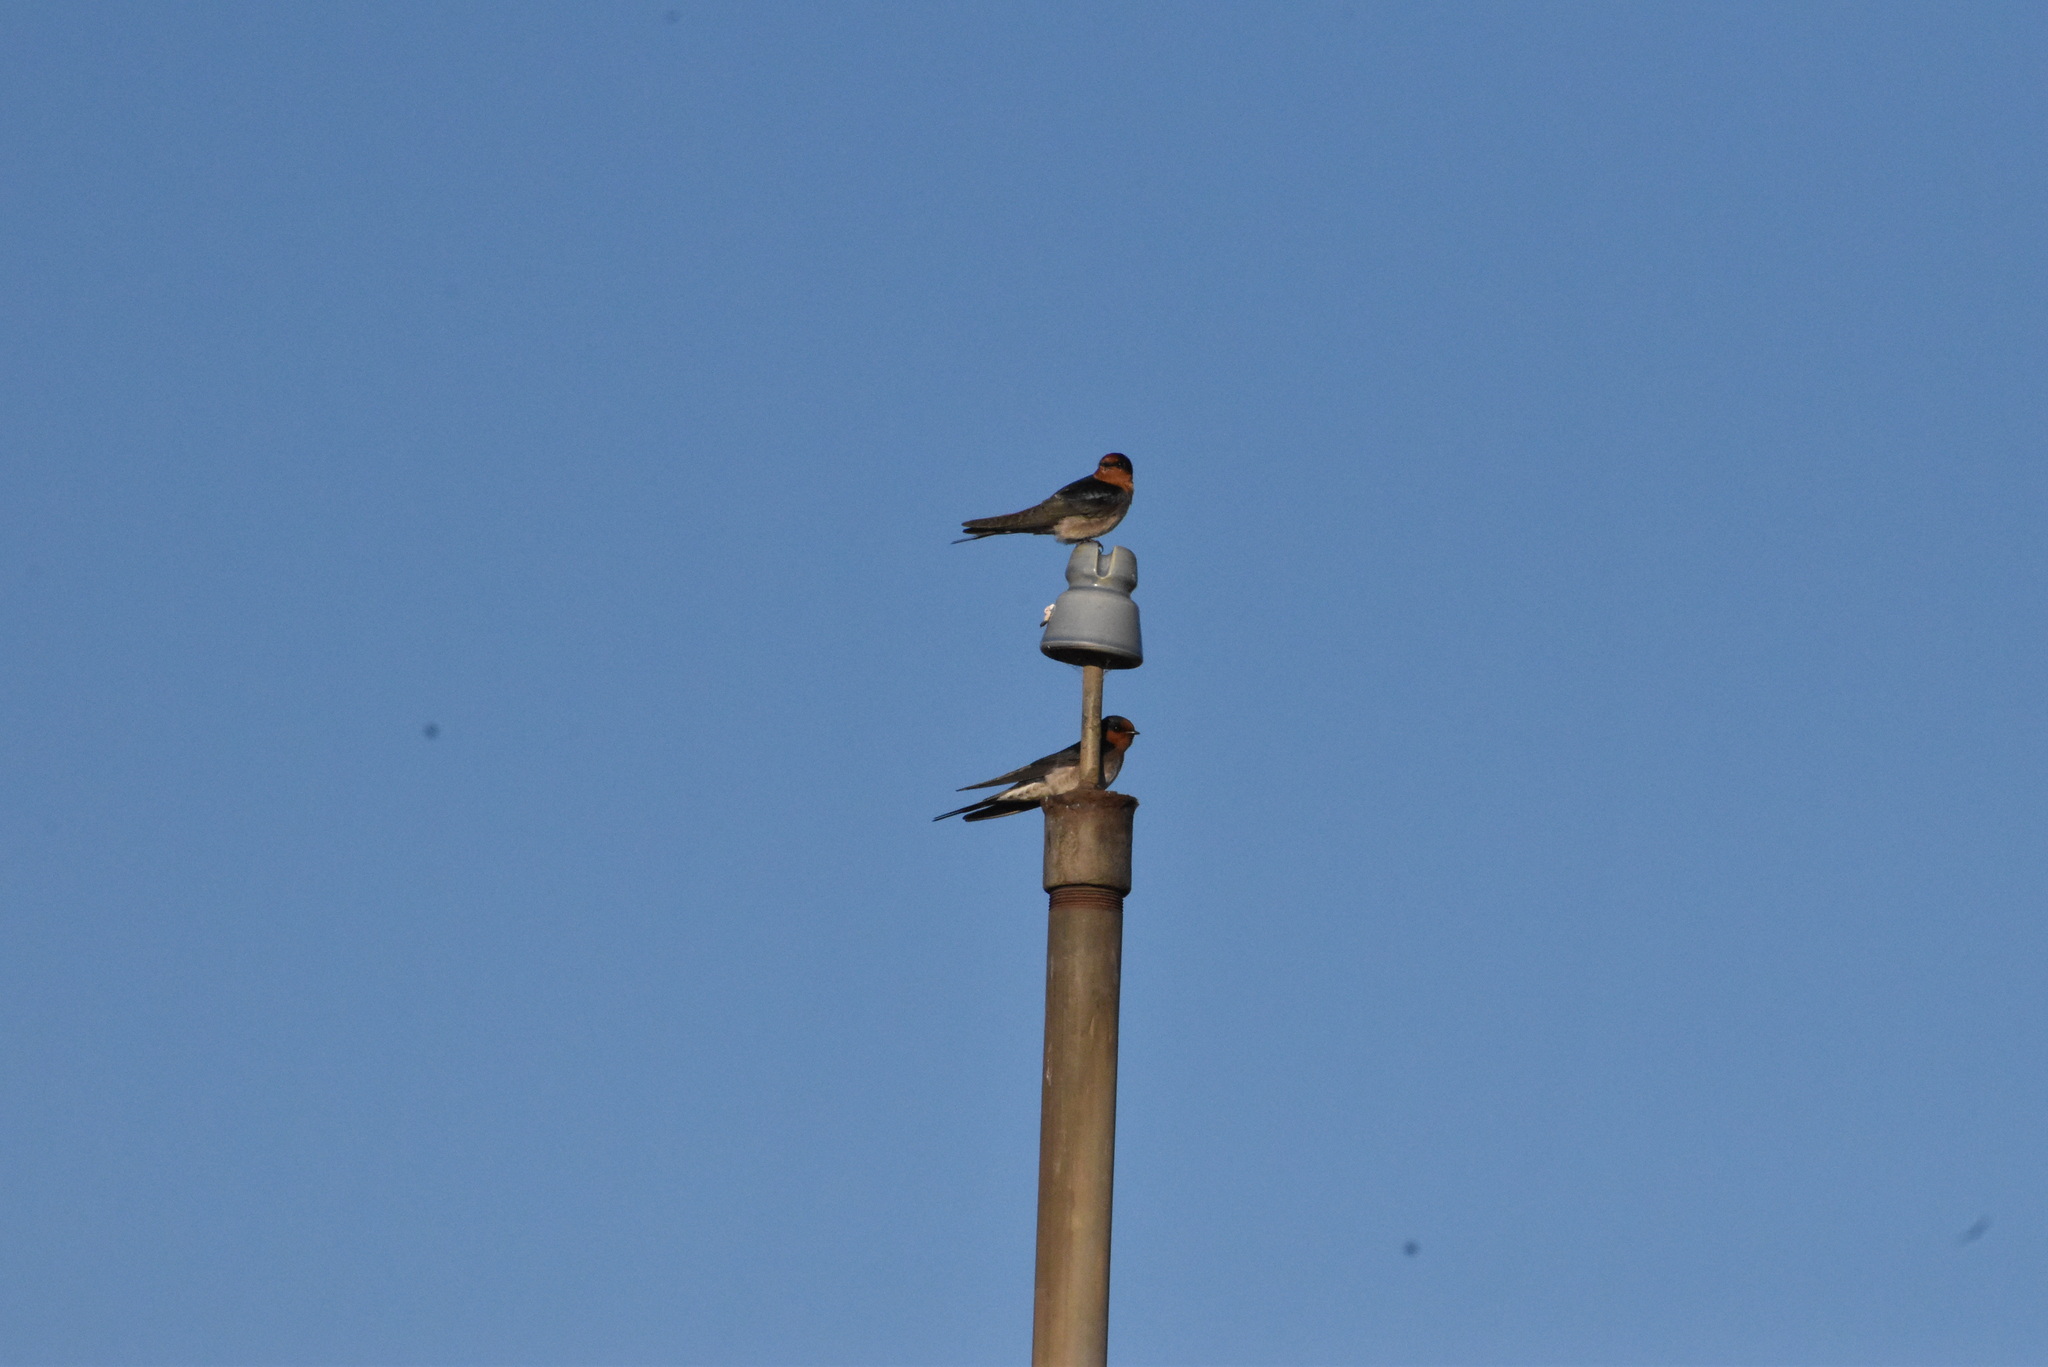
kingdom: Animalia
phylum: Chordata
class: Aves
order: Passeriformes
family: Hirundinidae
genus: Hirundo
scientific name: Hirundo neoxena
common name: Welcome swallow
